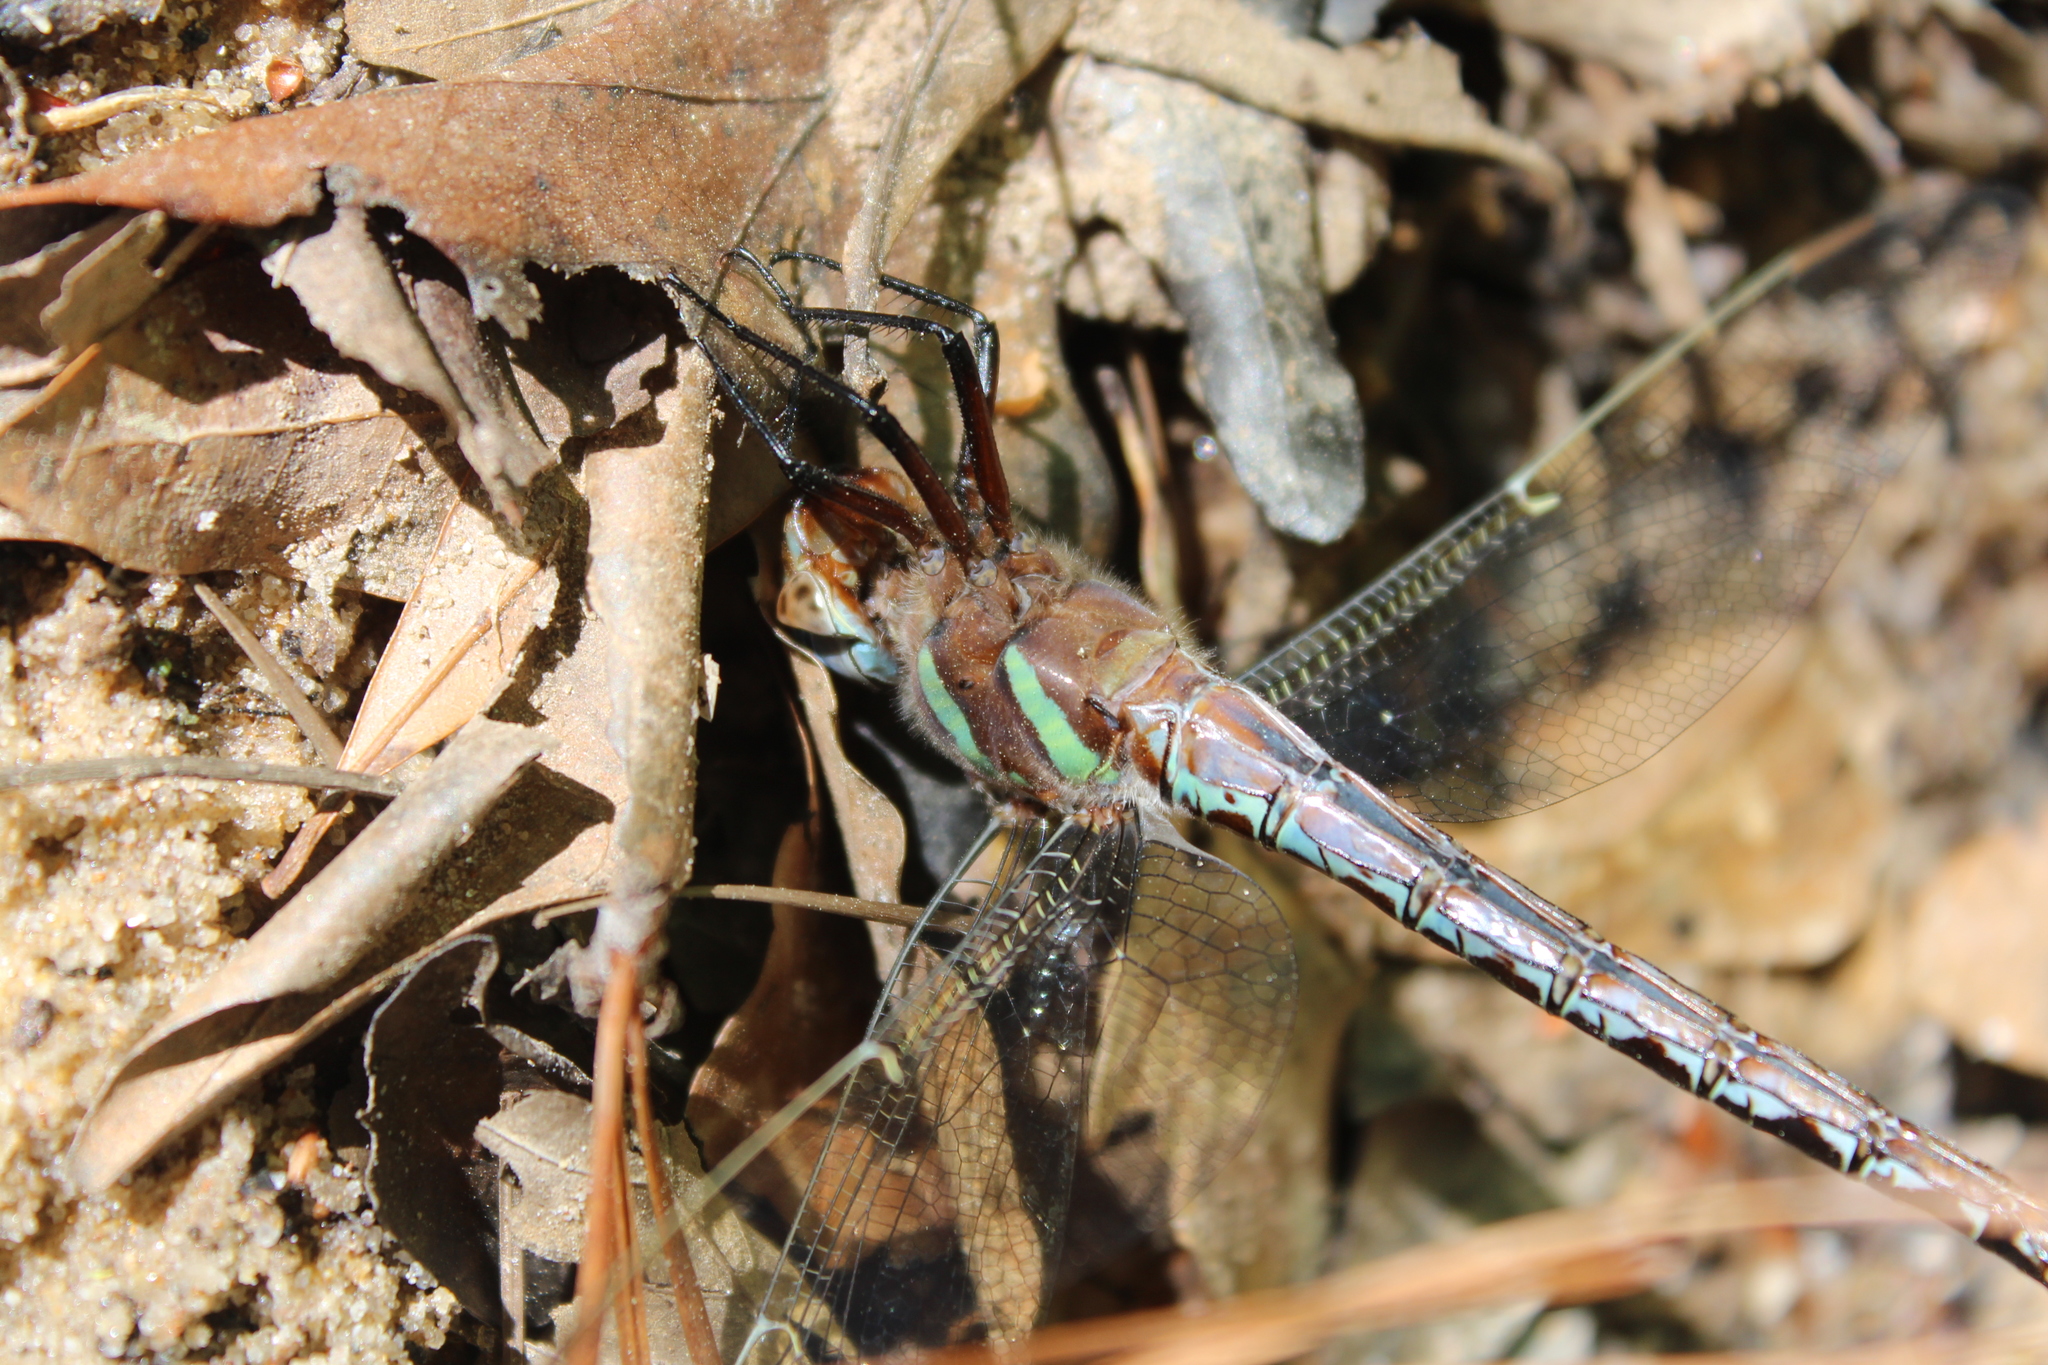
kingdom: Animalia
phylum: Arthropoda
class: Insecta
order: Odonata
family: Aeshnidae
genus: Epiaeschna
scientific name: Epiaeschna heros
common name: Swamp darner
